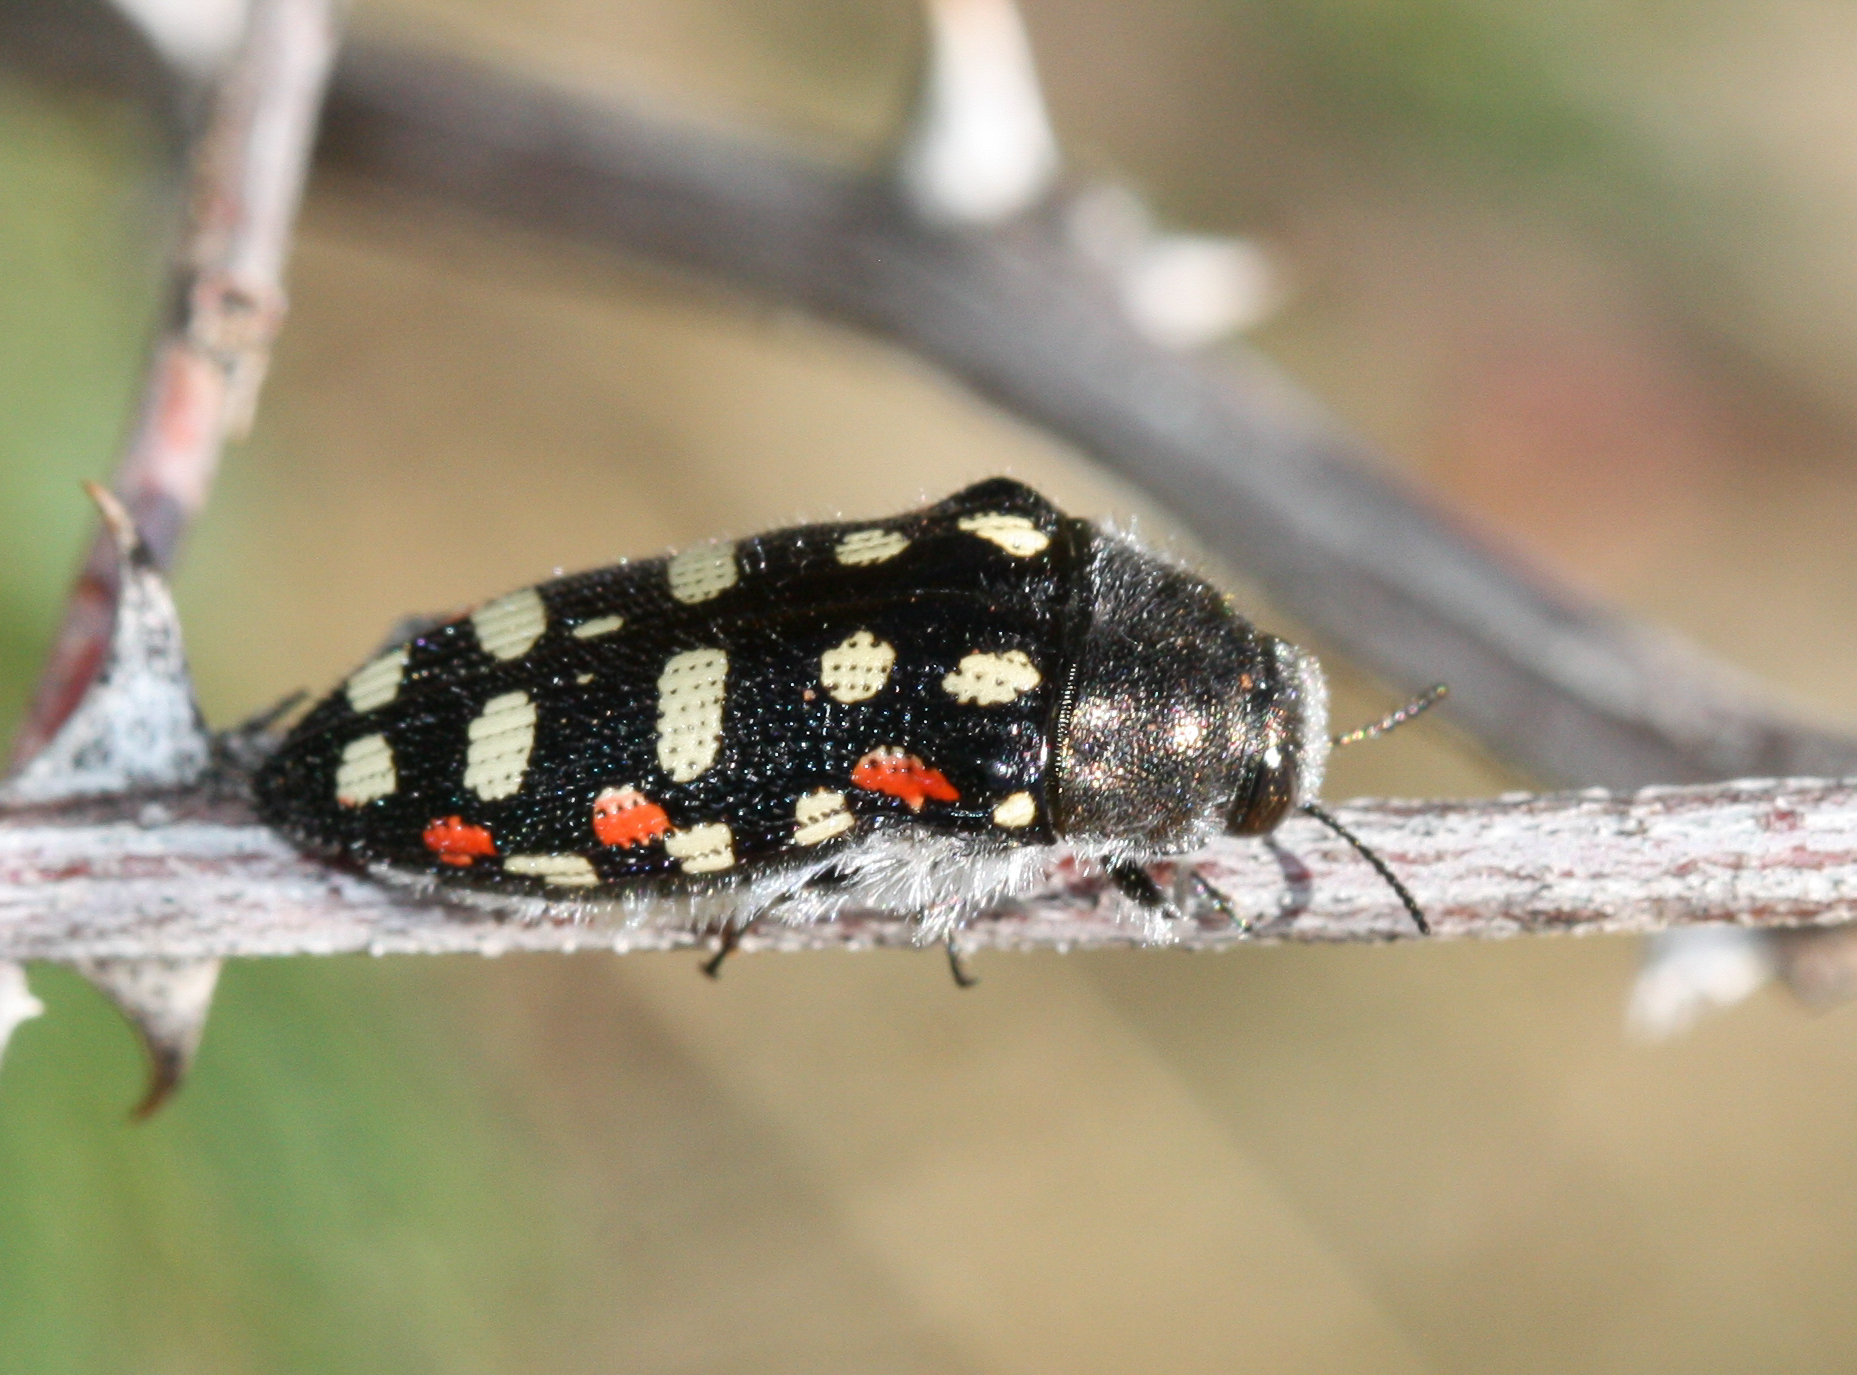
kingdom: Animalia
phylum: Arthropoda
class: Insecta
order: Coleoptera
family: Buprestidae
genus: Acmaeodera
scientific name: Acmaeodera gibbula
